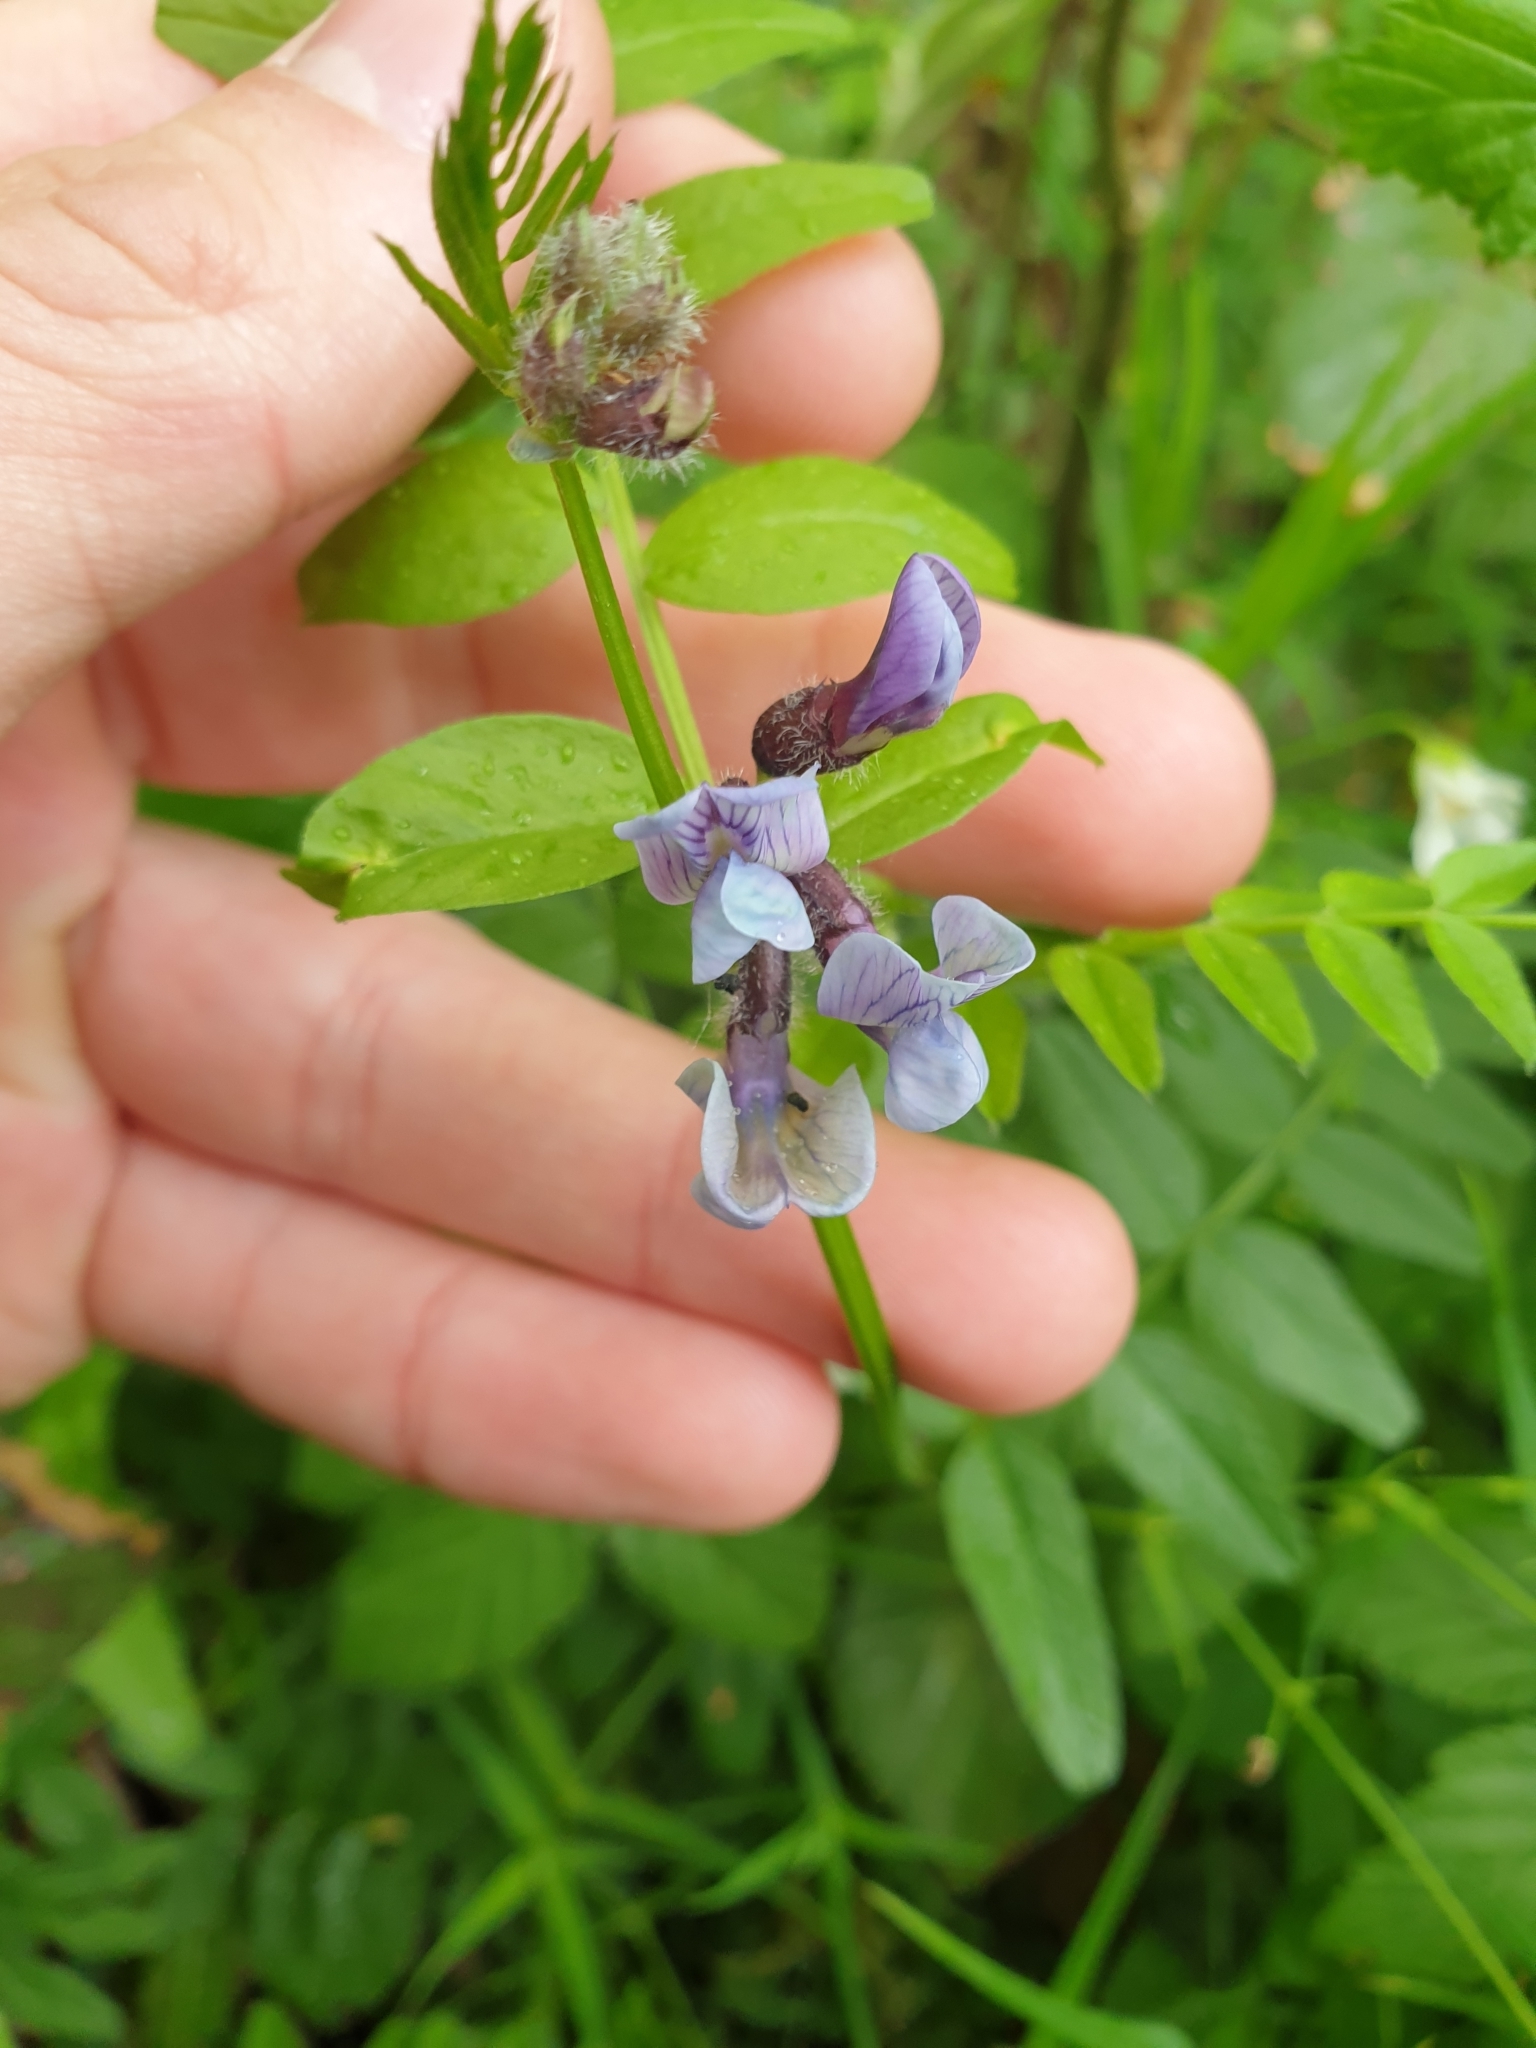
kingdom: Plantae
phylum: Tracheophyta
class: Magnoliopsida
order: Fabales
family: Fabaceae
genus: Vicia
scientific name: Vicia sepium
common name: Bush vetch
